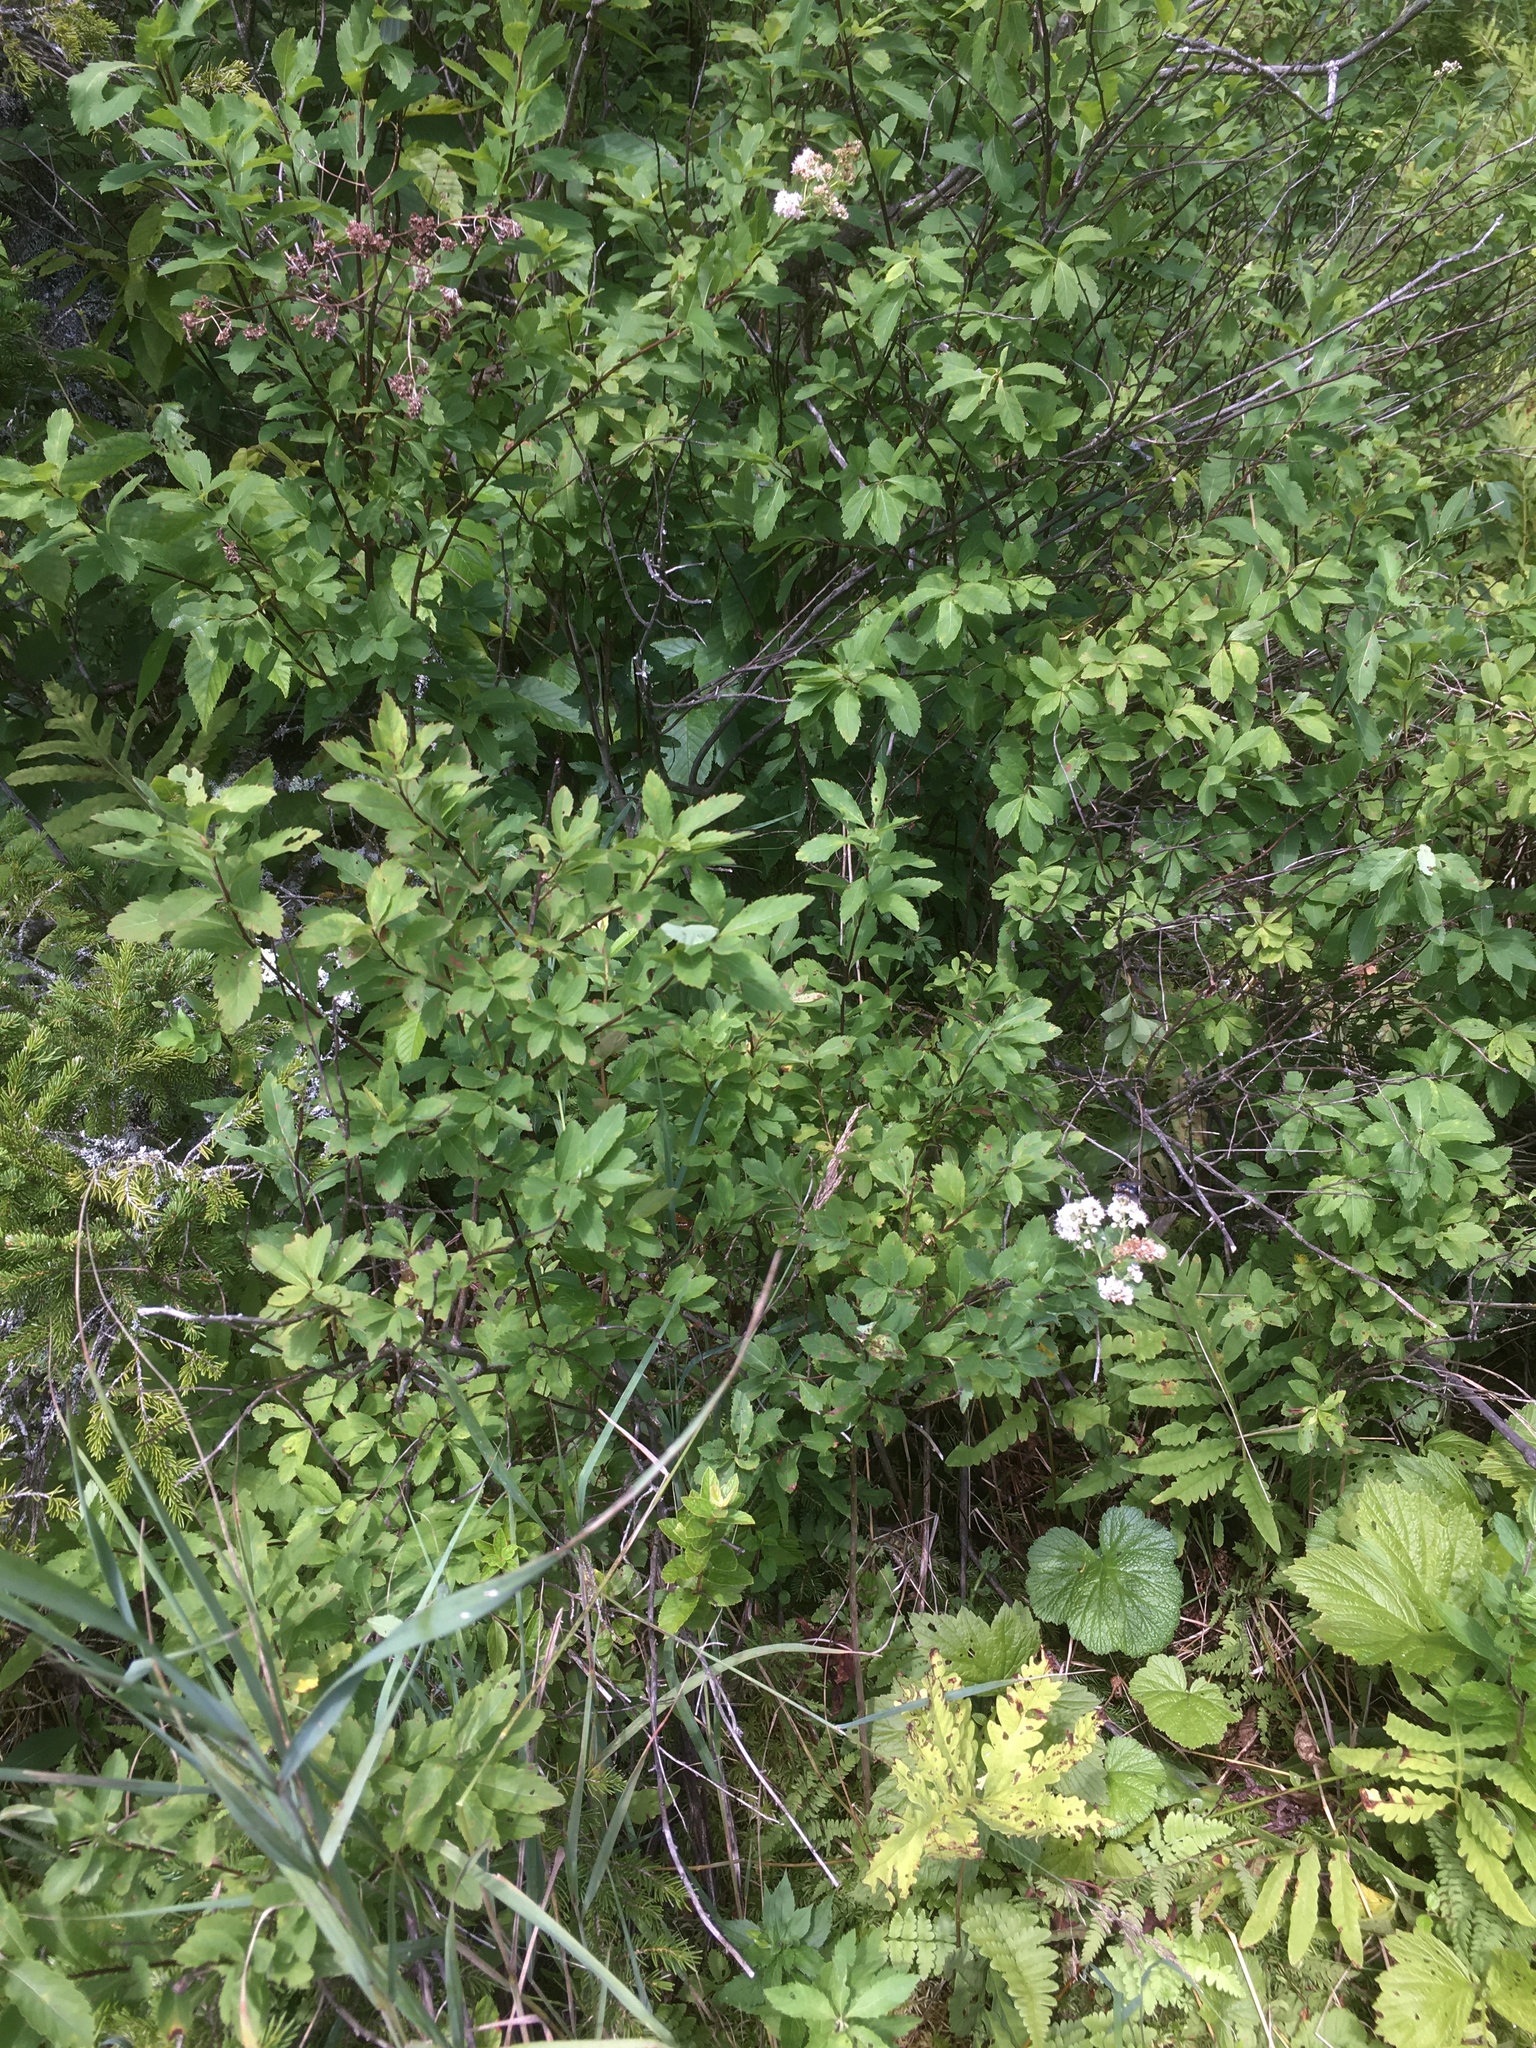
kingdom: Plantae
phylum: Tracheophyta
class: Magnoliopsida
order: Rosales
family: Rosaceae
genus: Spiraea
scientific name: Spiraea alba
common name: Pale bridewort
